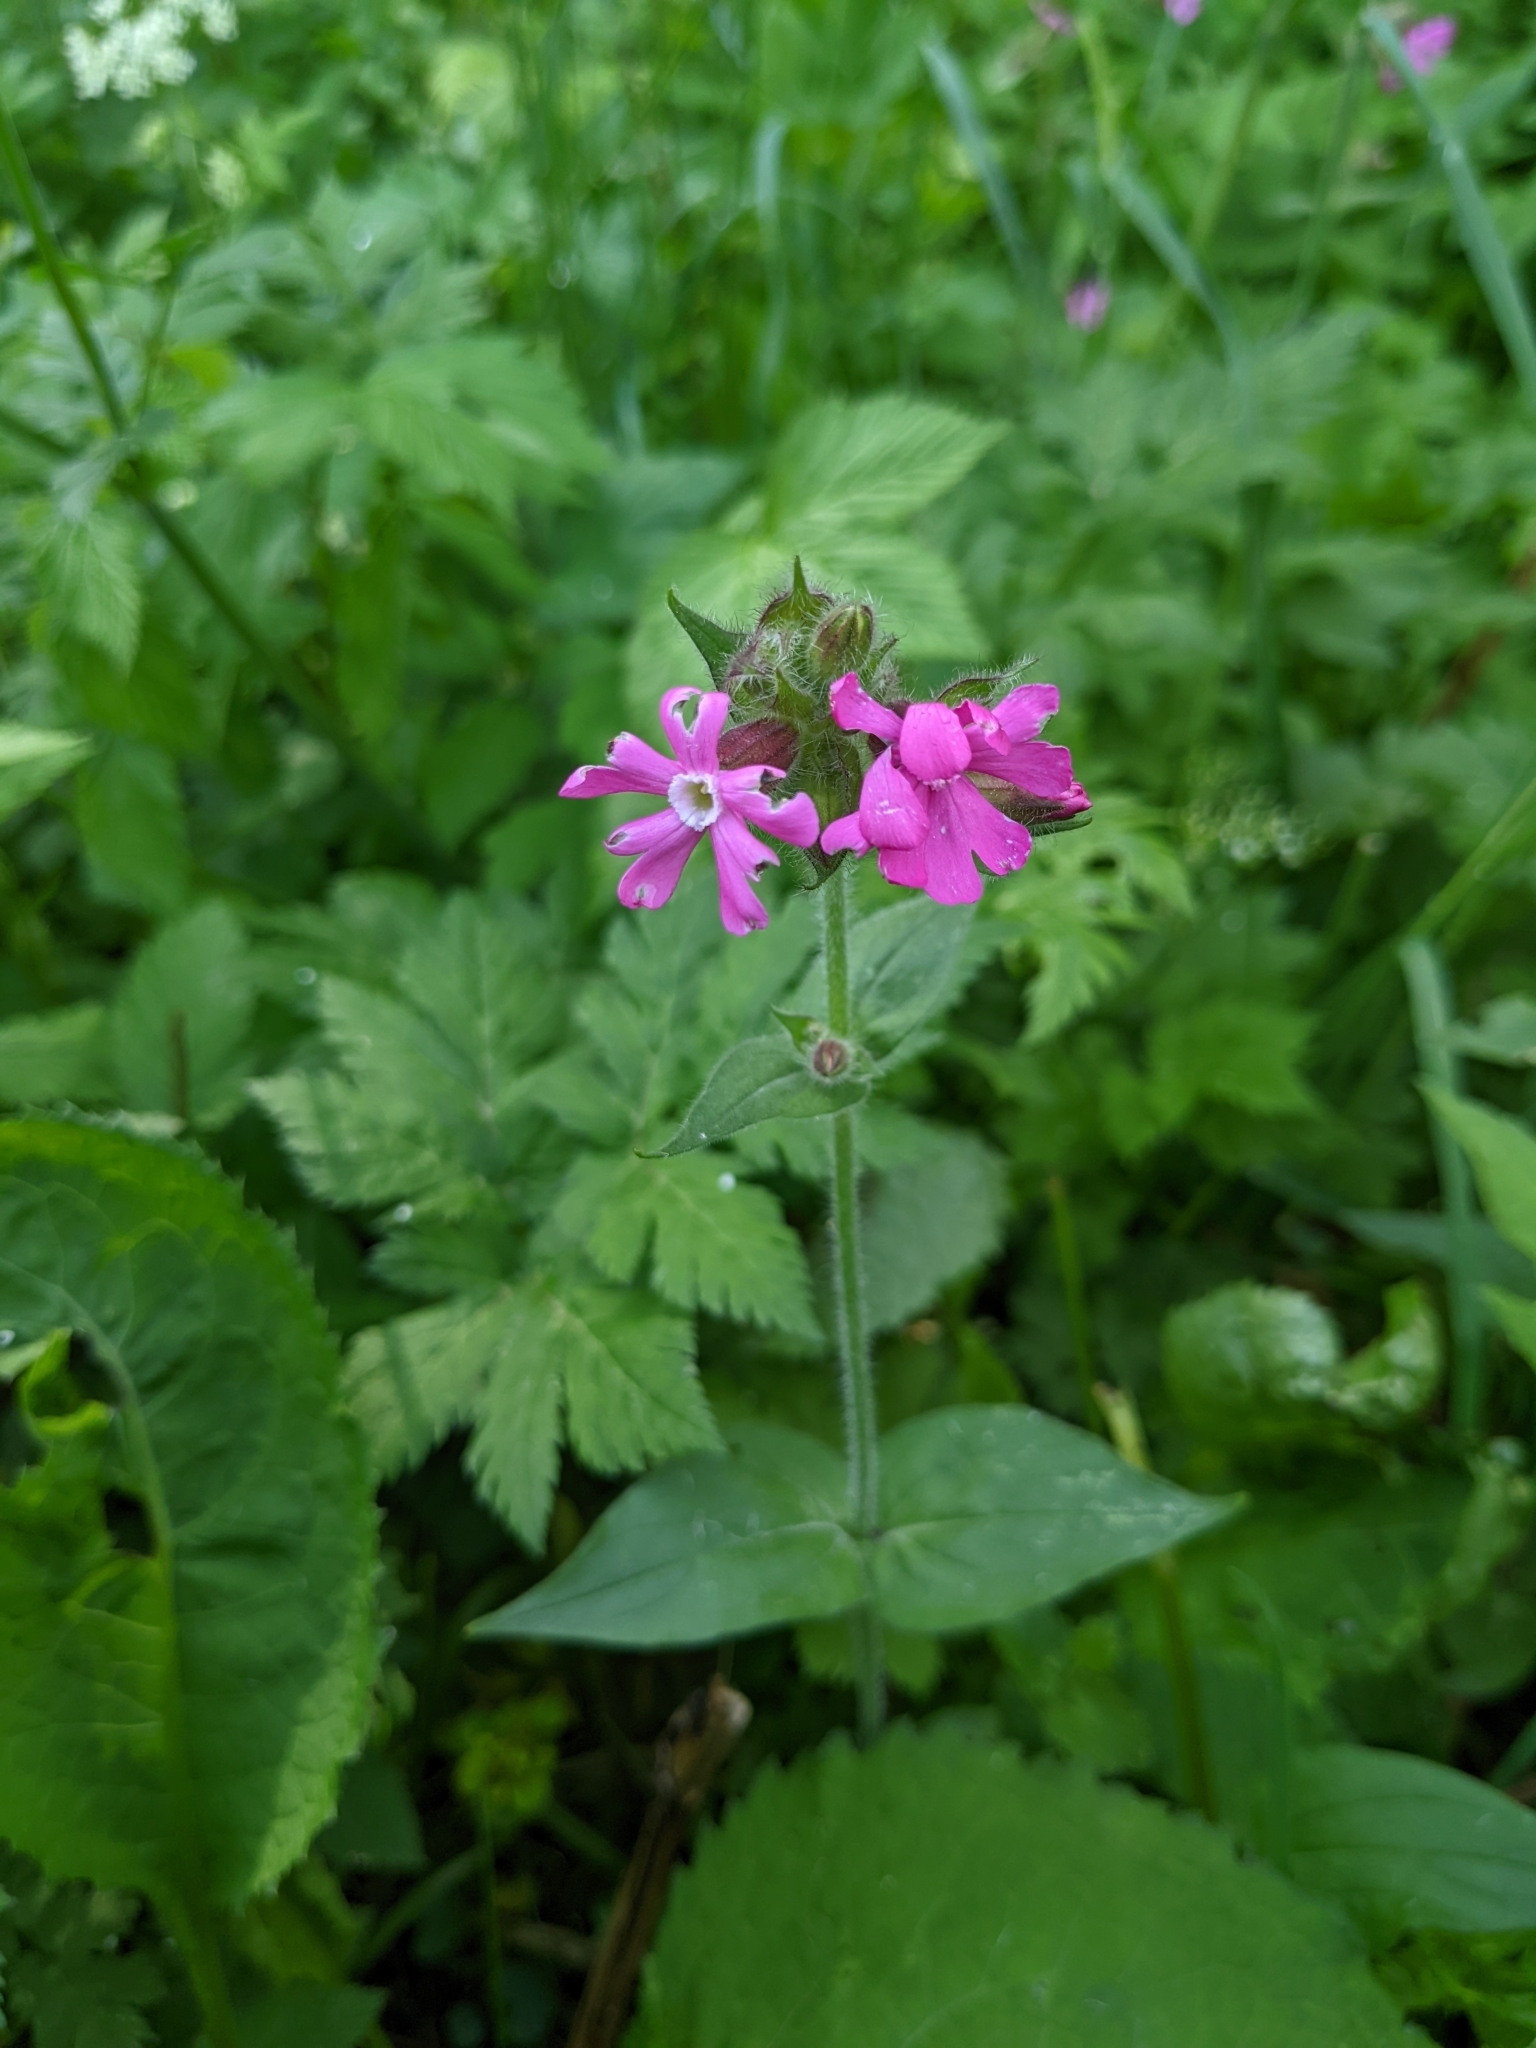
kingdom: Plantae
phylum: Tracheophyta
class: Magnoliopsida
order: Caryophyllales
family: Caryophyllaceae
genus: Silene
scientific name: Silene dioica
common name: Red campion
